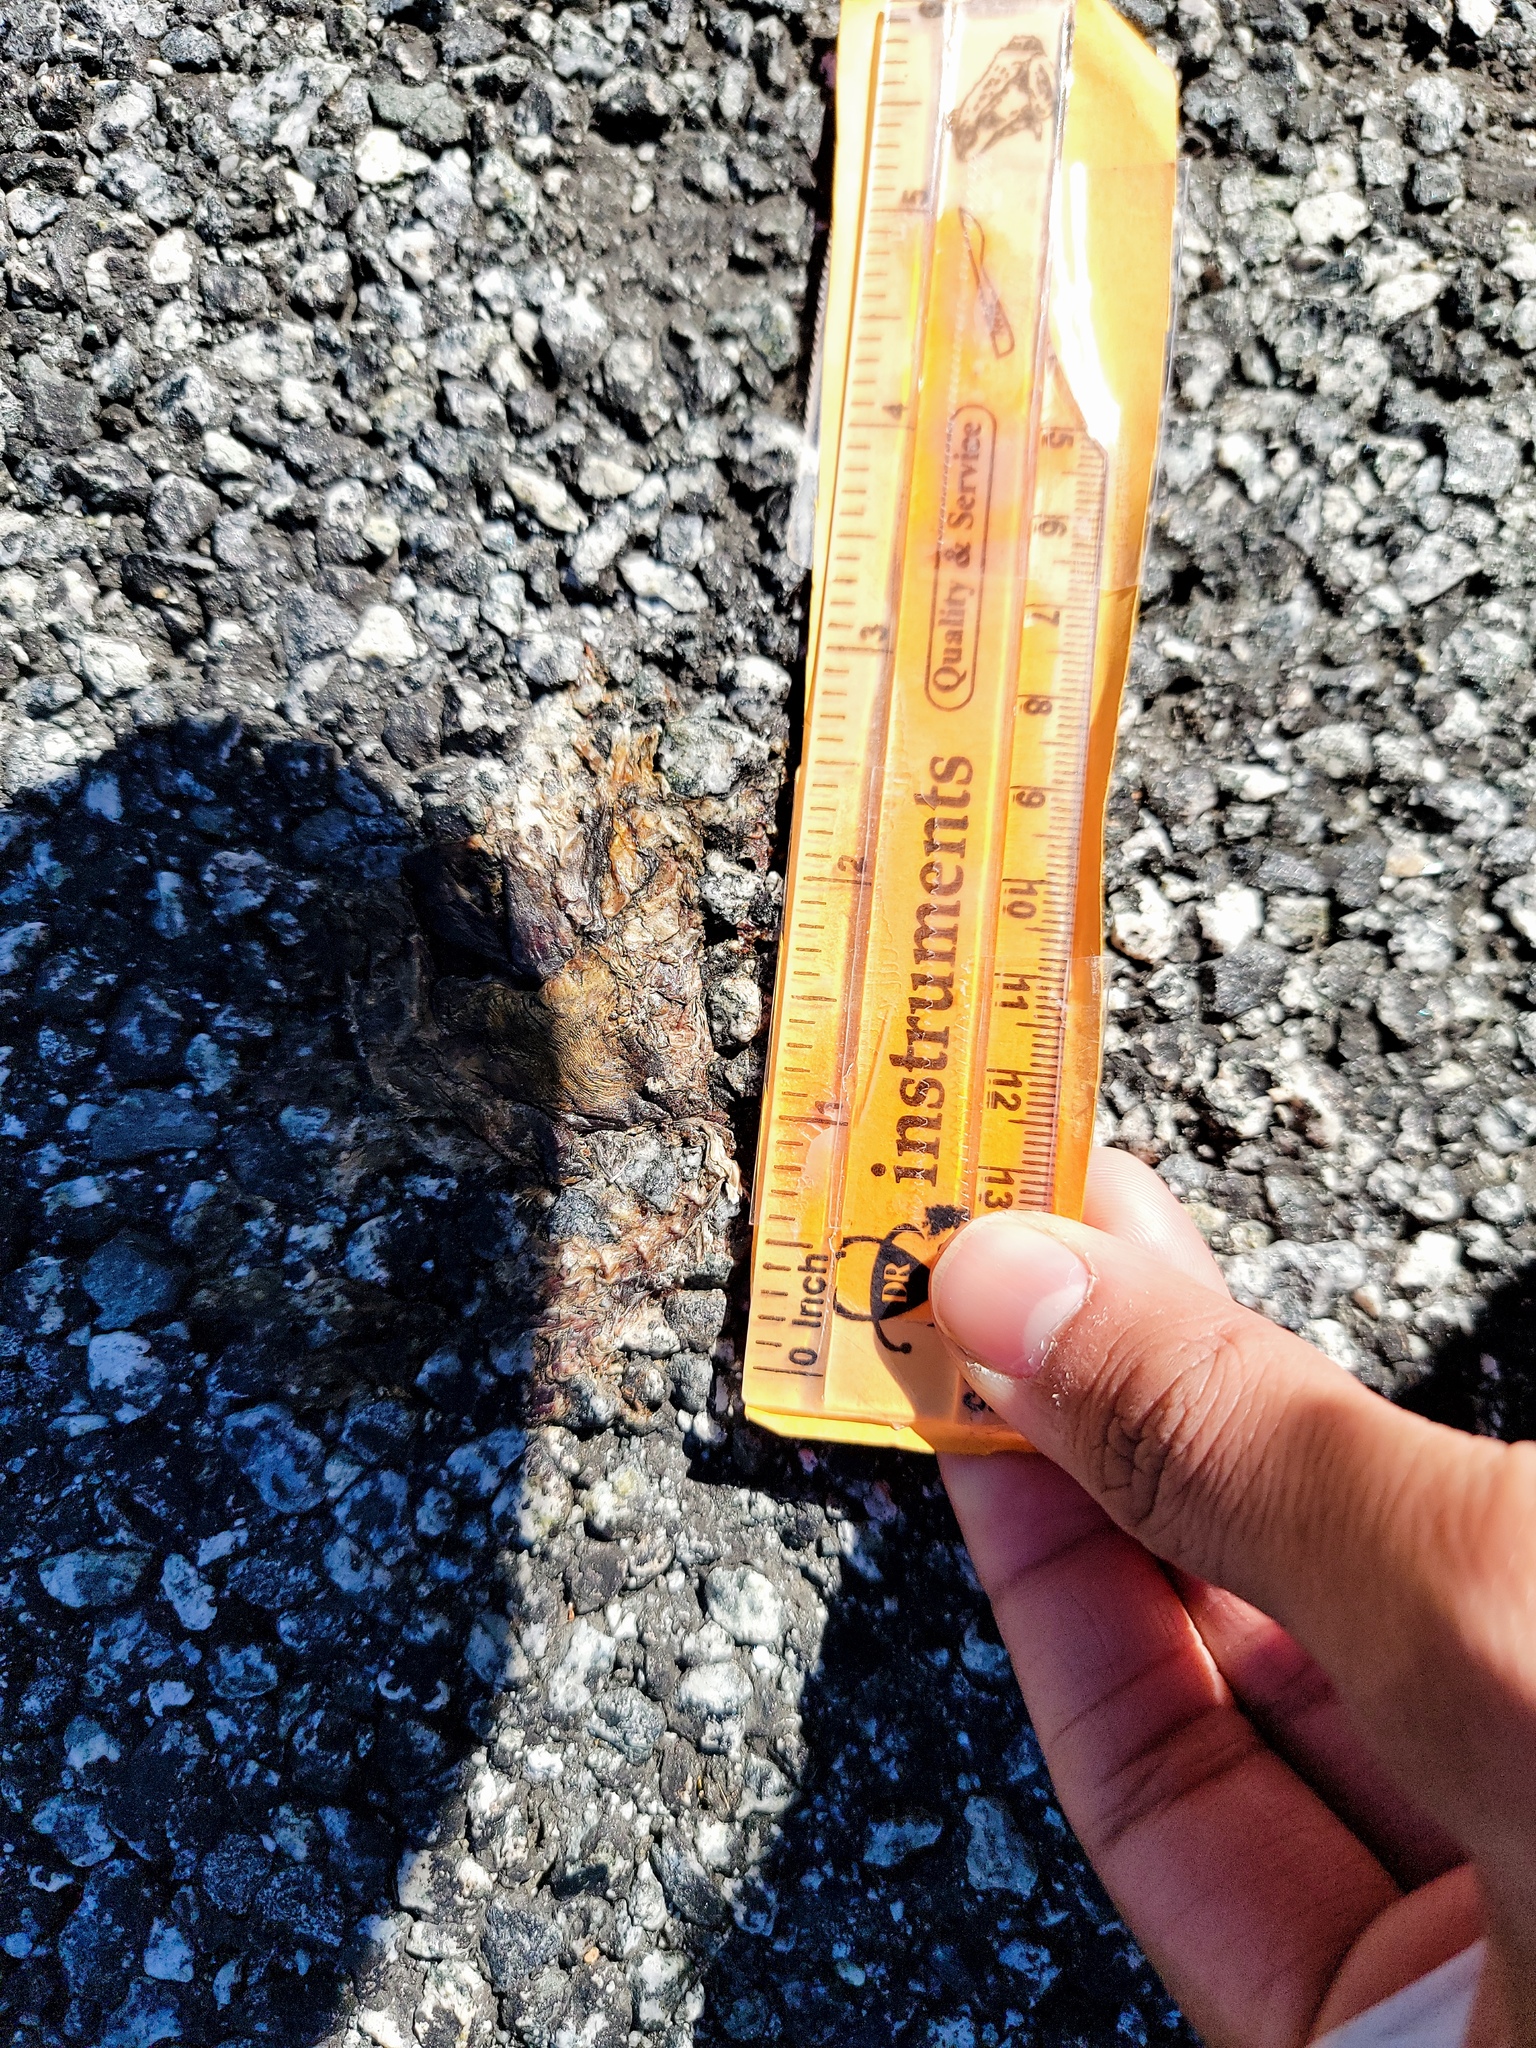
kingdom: Animalia
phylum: Chordata
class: Amphibia
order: Caudata
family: Salamandridae
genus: Taricha
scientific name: Taricha
